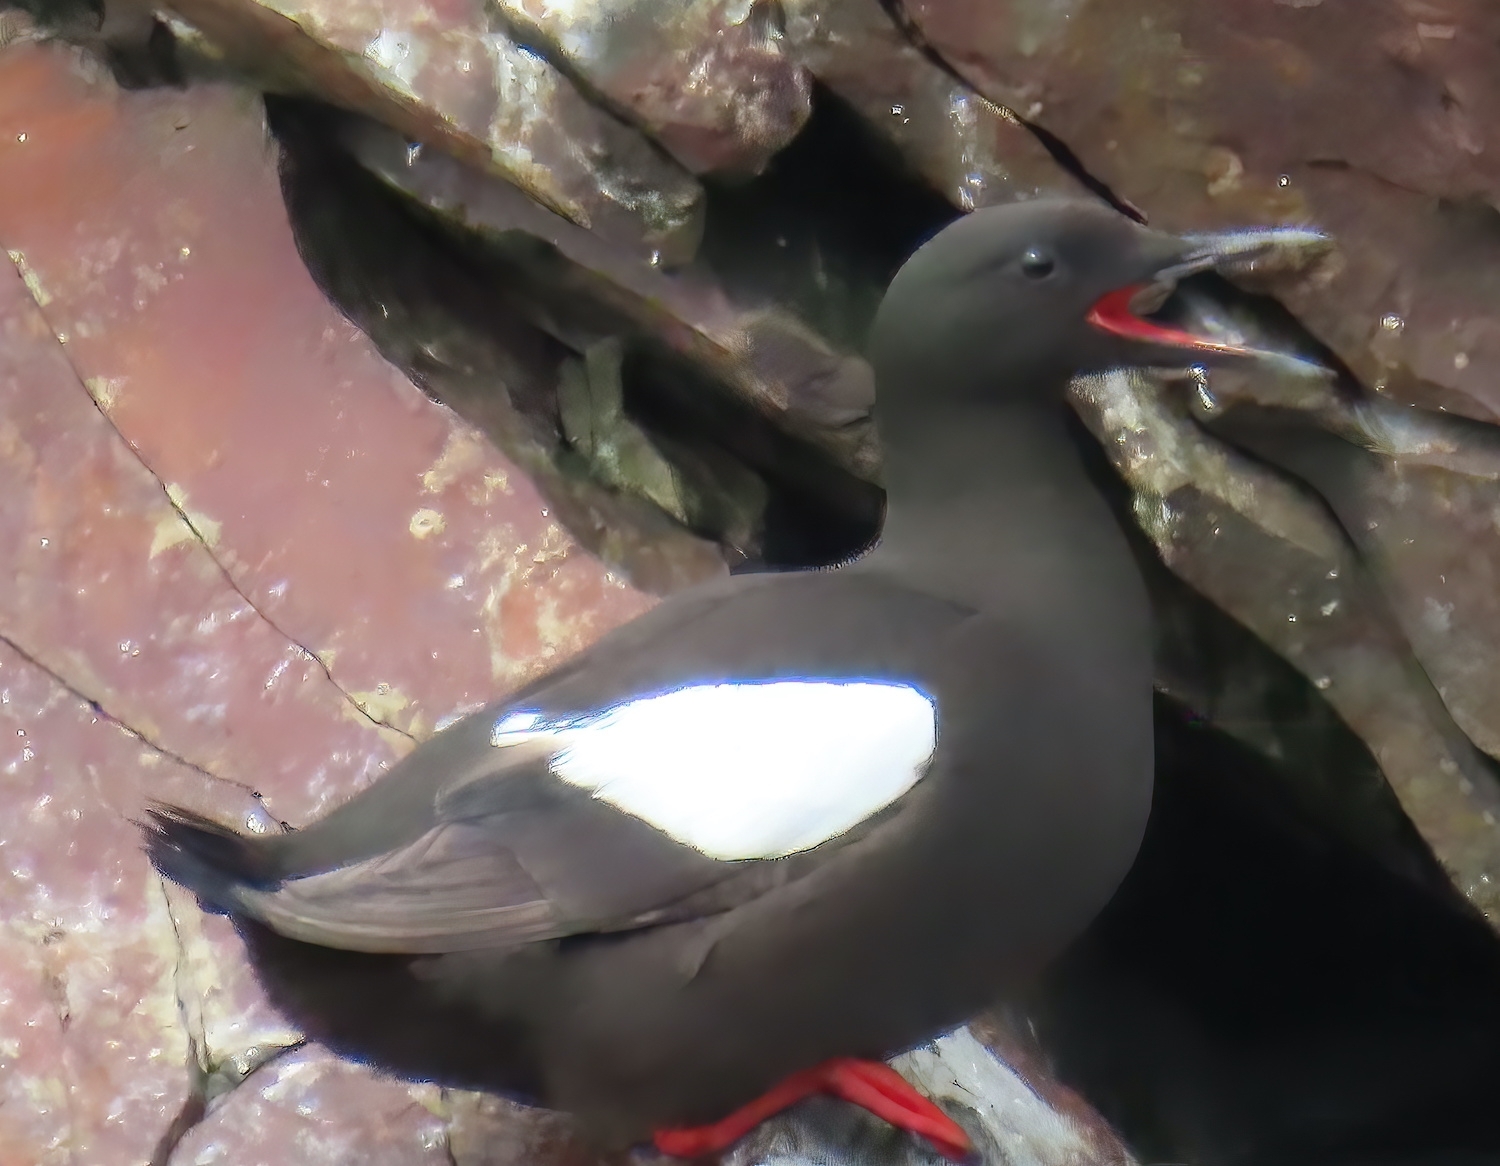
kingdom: Animalia
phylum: Chordata
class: Aves
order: Charadriiformes
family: Alcidae
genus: Cepphus
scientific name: Cepphus grylle
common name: Black guillemot
